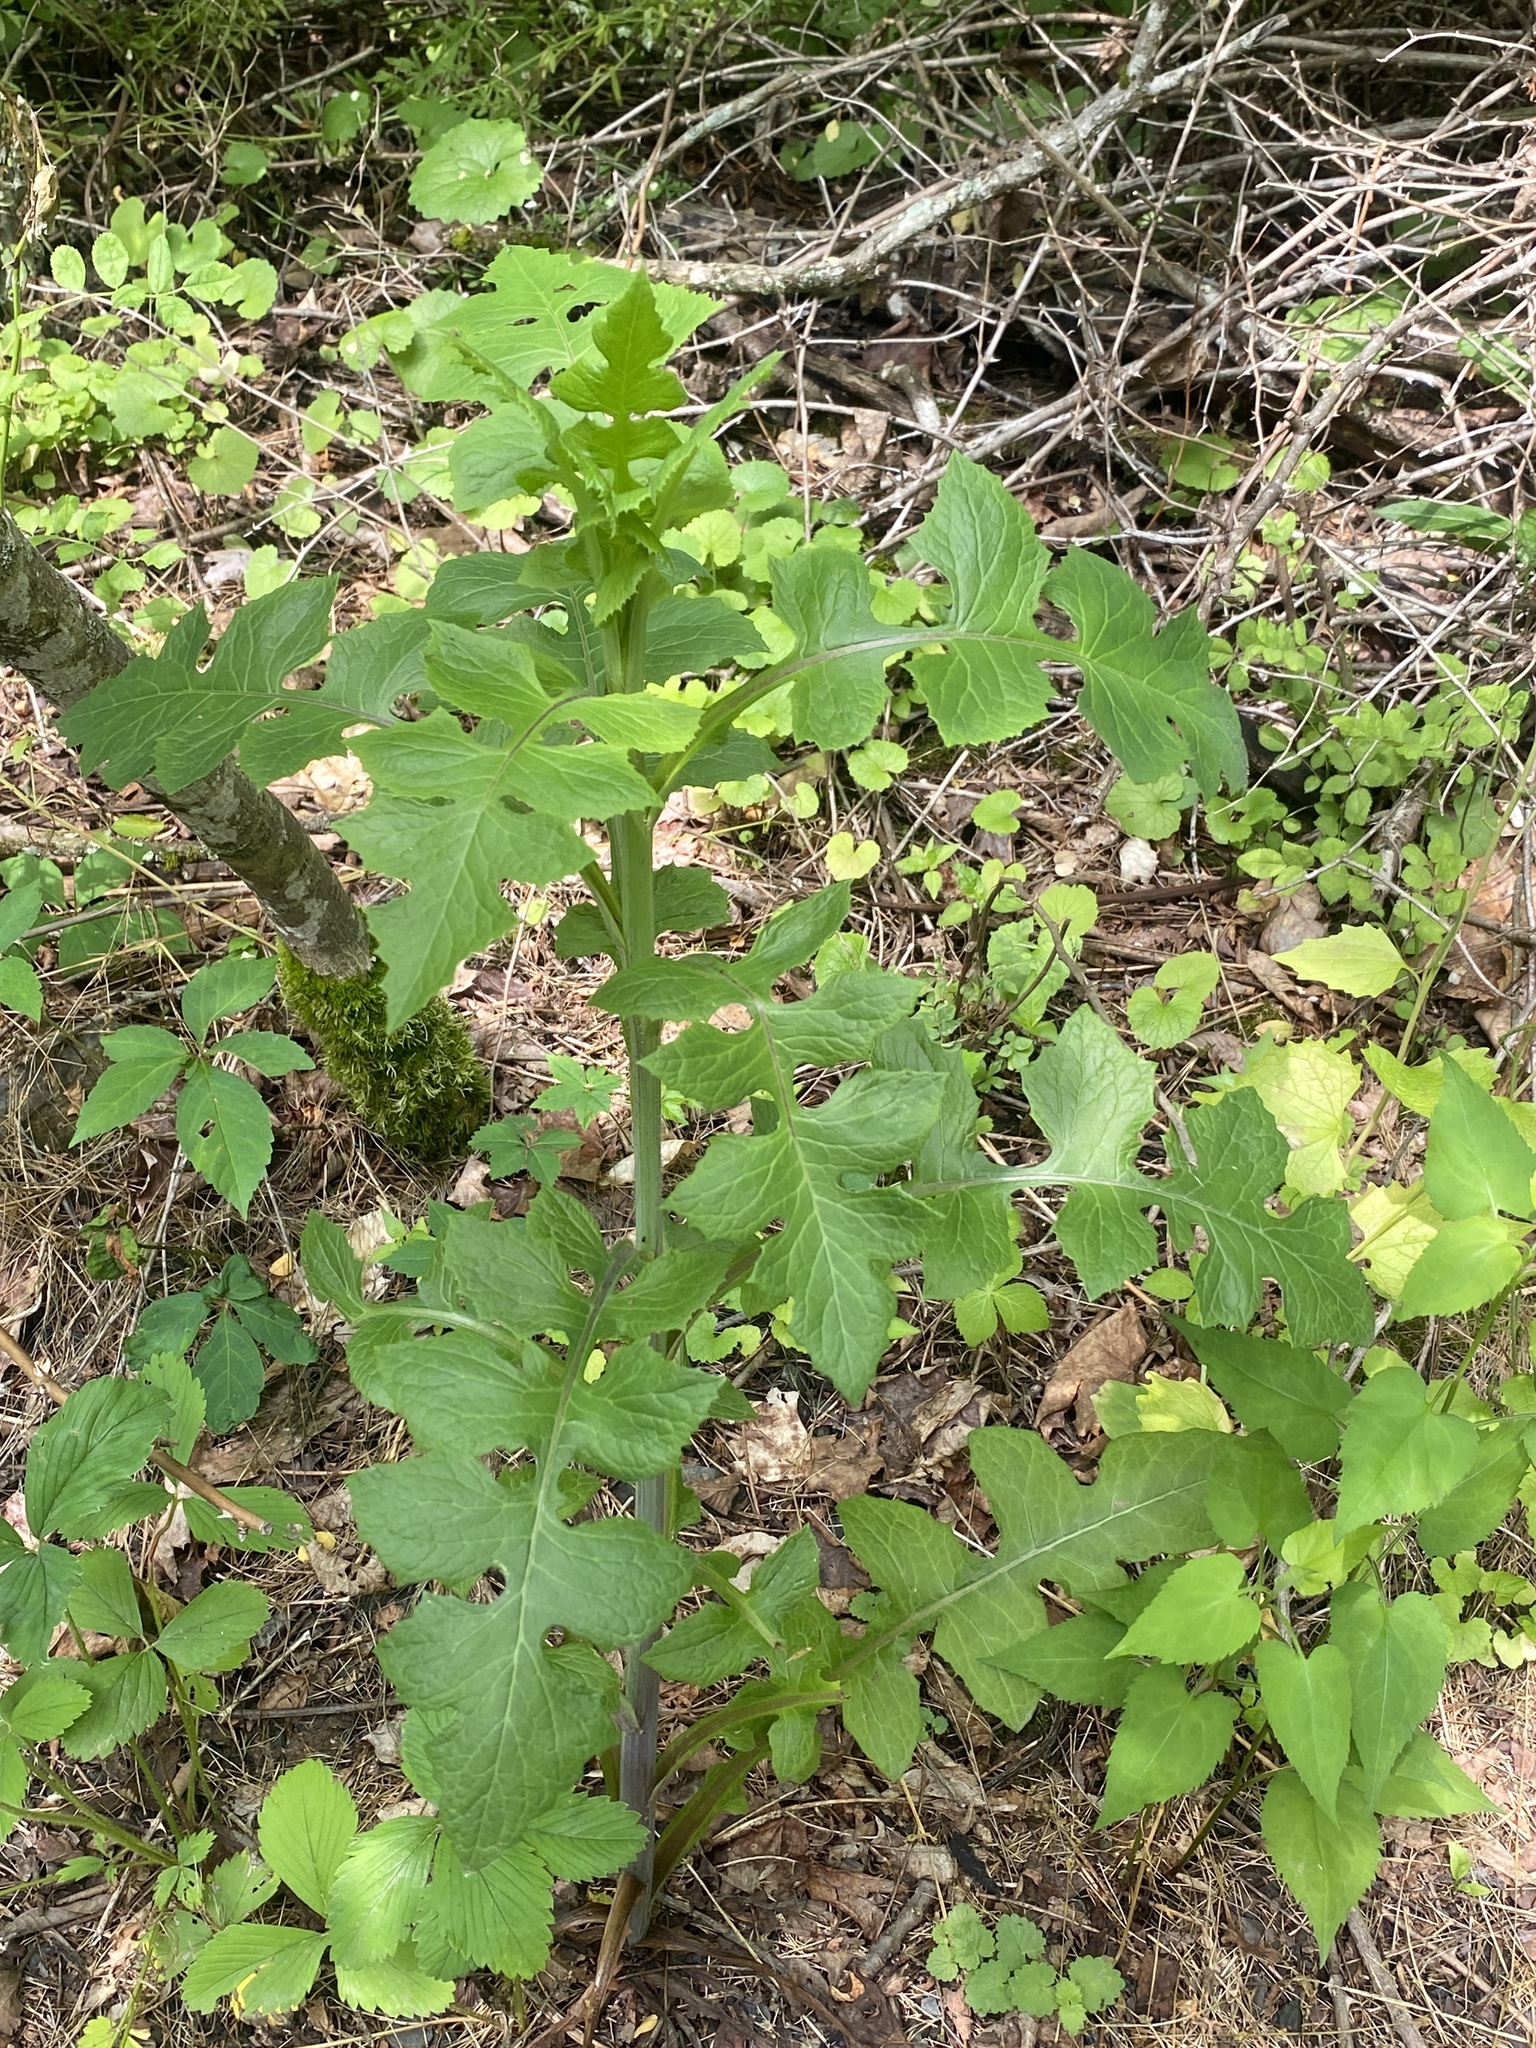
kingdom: Plantae
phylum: Tracheophyta
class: Magnoliopsida
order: Asterales
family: Asteraceae
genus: Lactuca
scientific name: Lactuca biennis
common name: Blue wood lettuce
